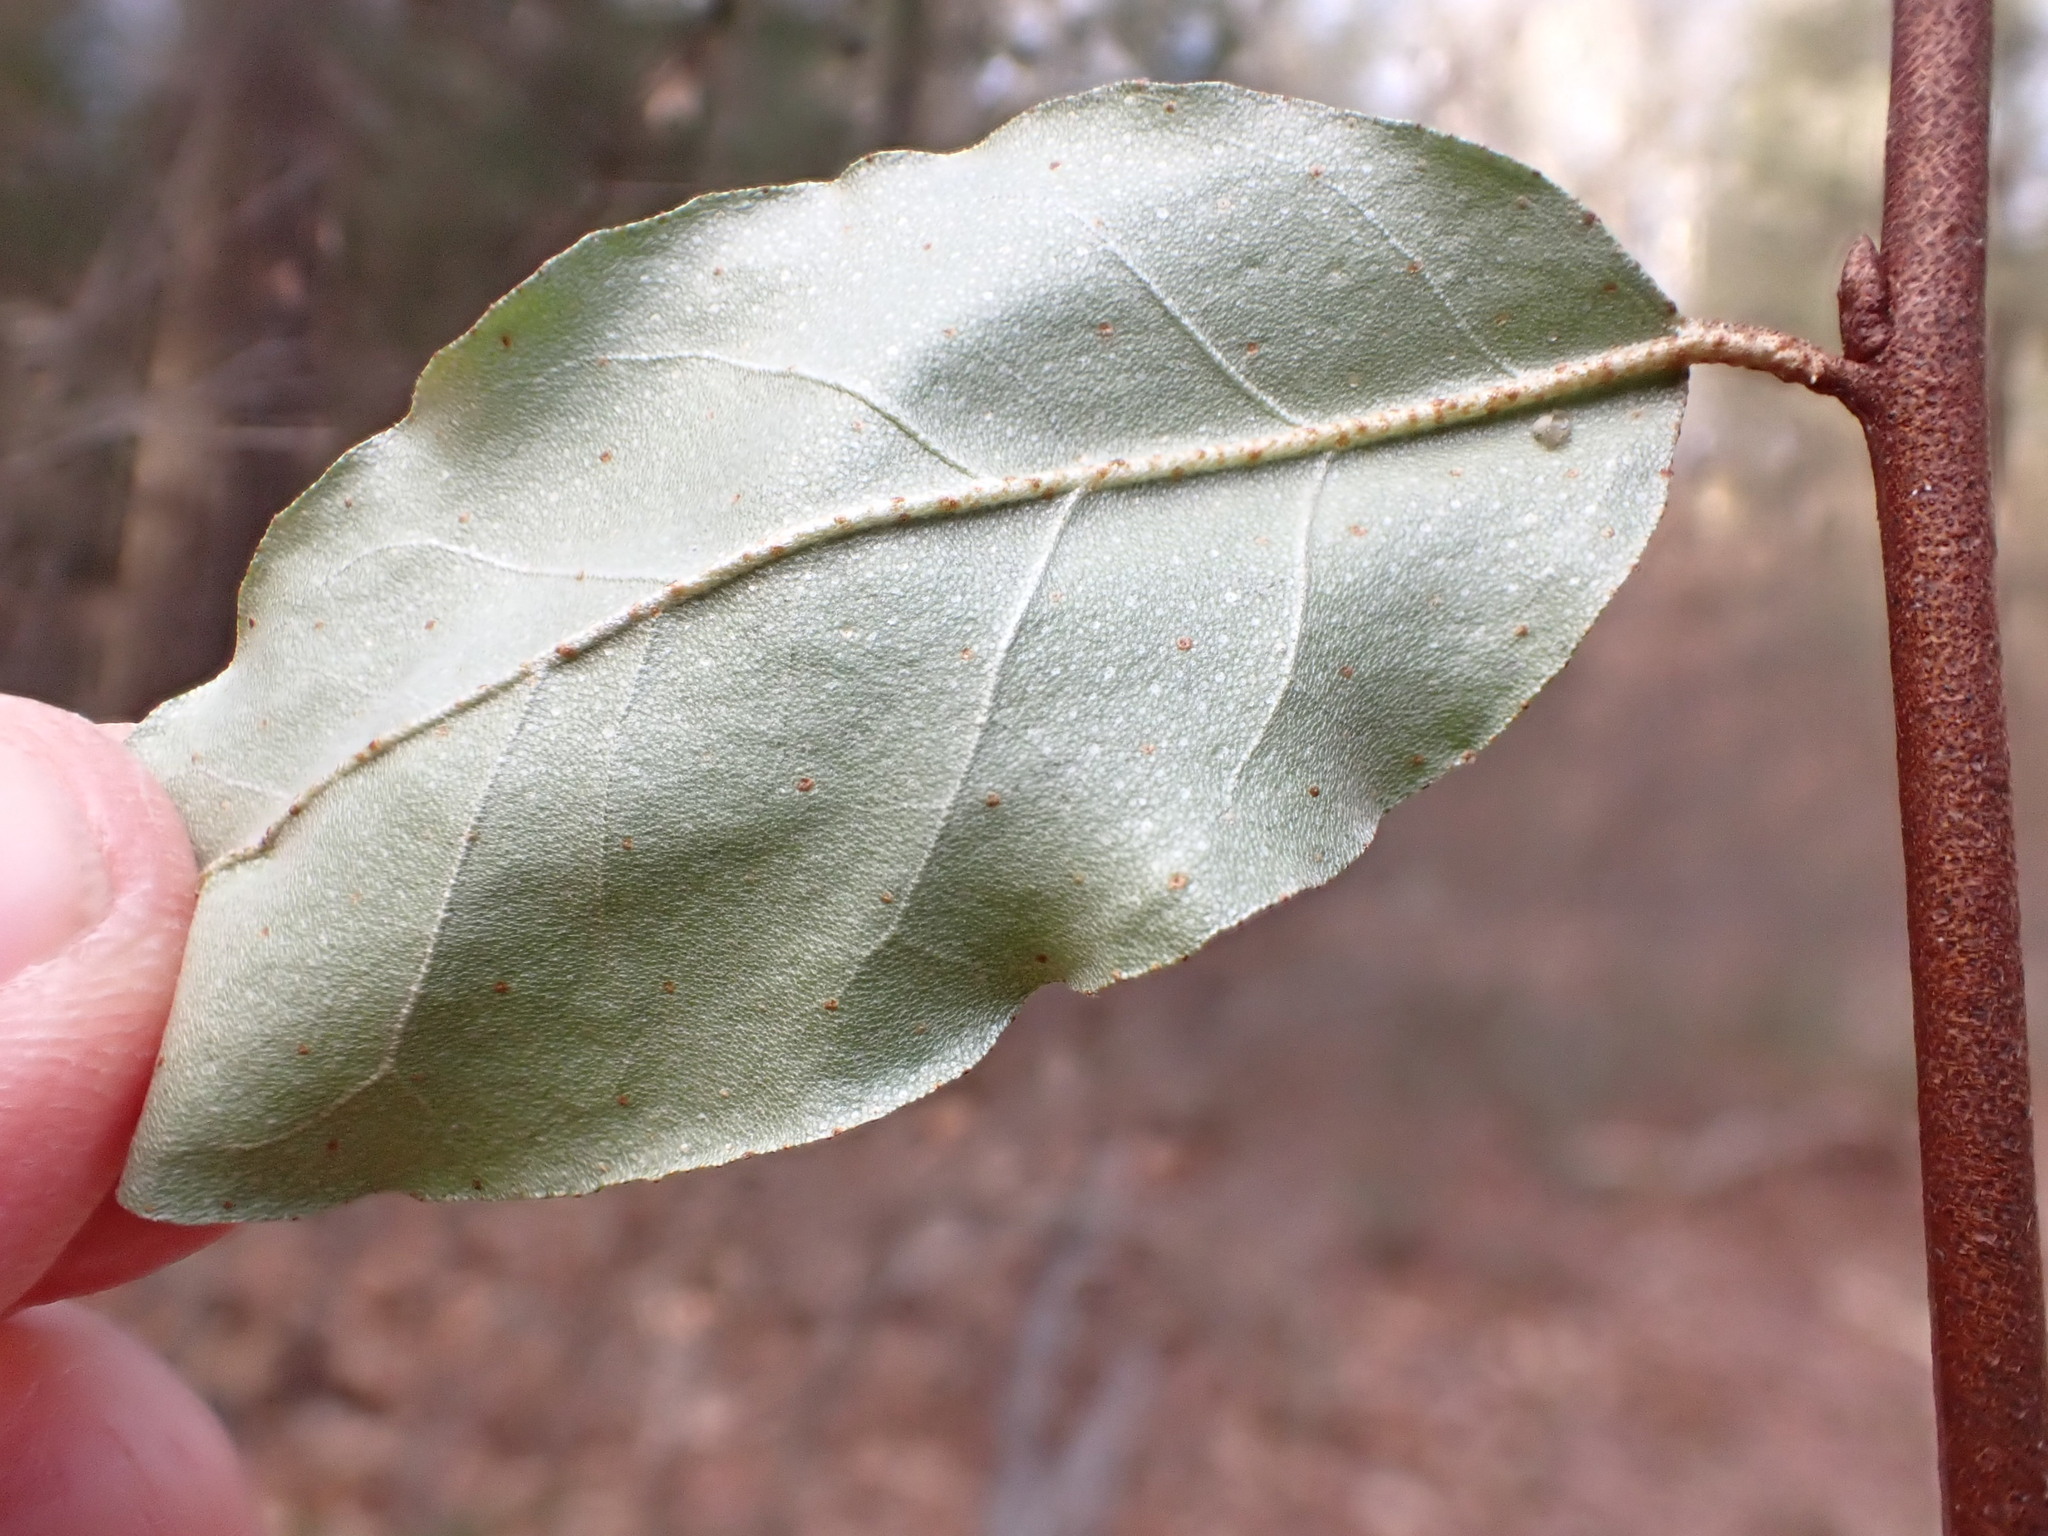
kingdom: Plantae
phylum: Tracheophyta
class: Magnoliopsida
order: Rosales
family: Elaeagnaceae
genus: Elaeagnus
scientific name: Elaeagnus umbellata
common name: Autumn olive
